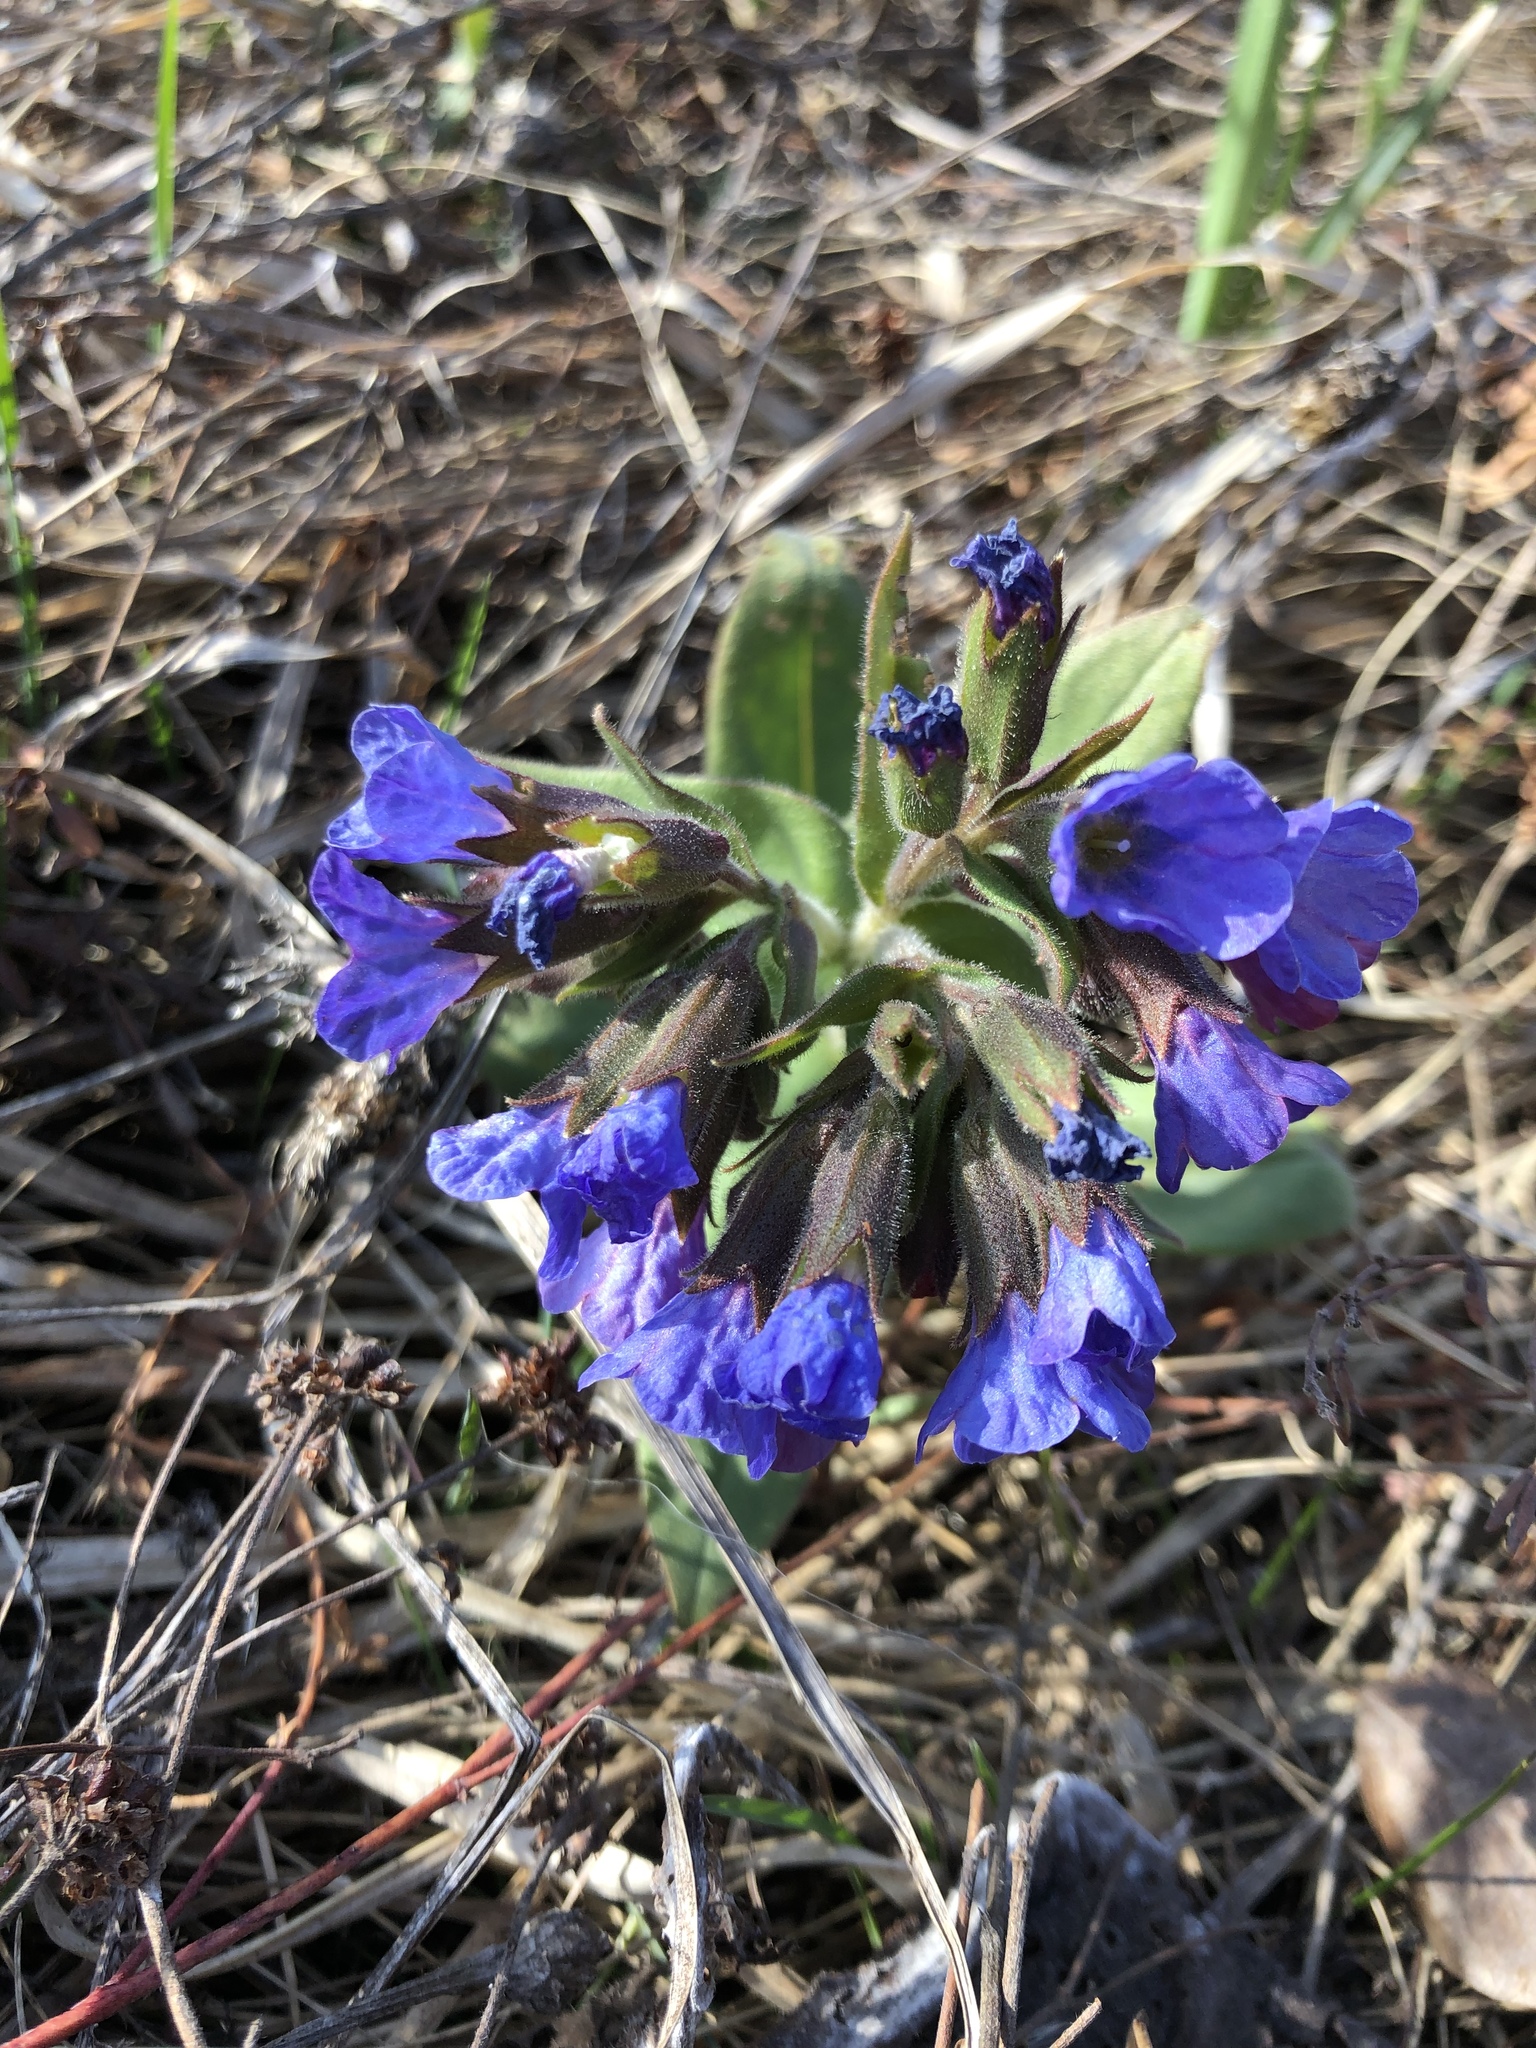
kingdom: Plantae
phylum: Tracheophyta
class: Magnoliopsida
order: Boraginales
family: Boraginaceae
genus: Pulmonaria
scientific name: Pulmonaria mollis
